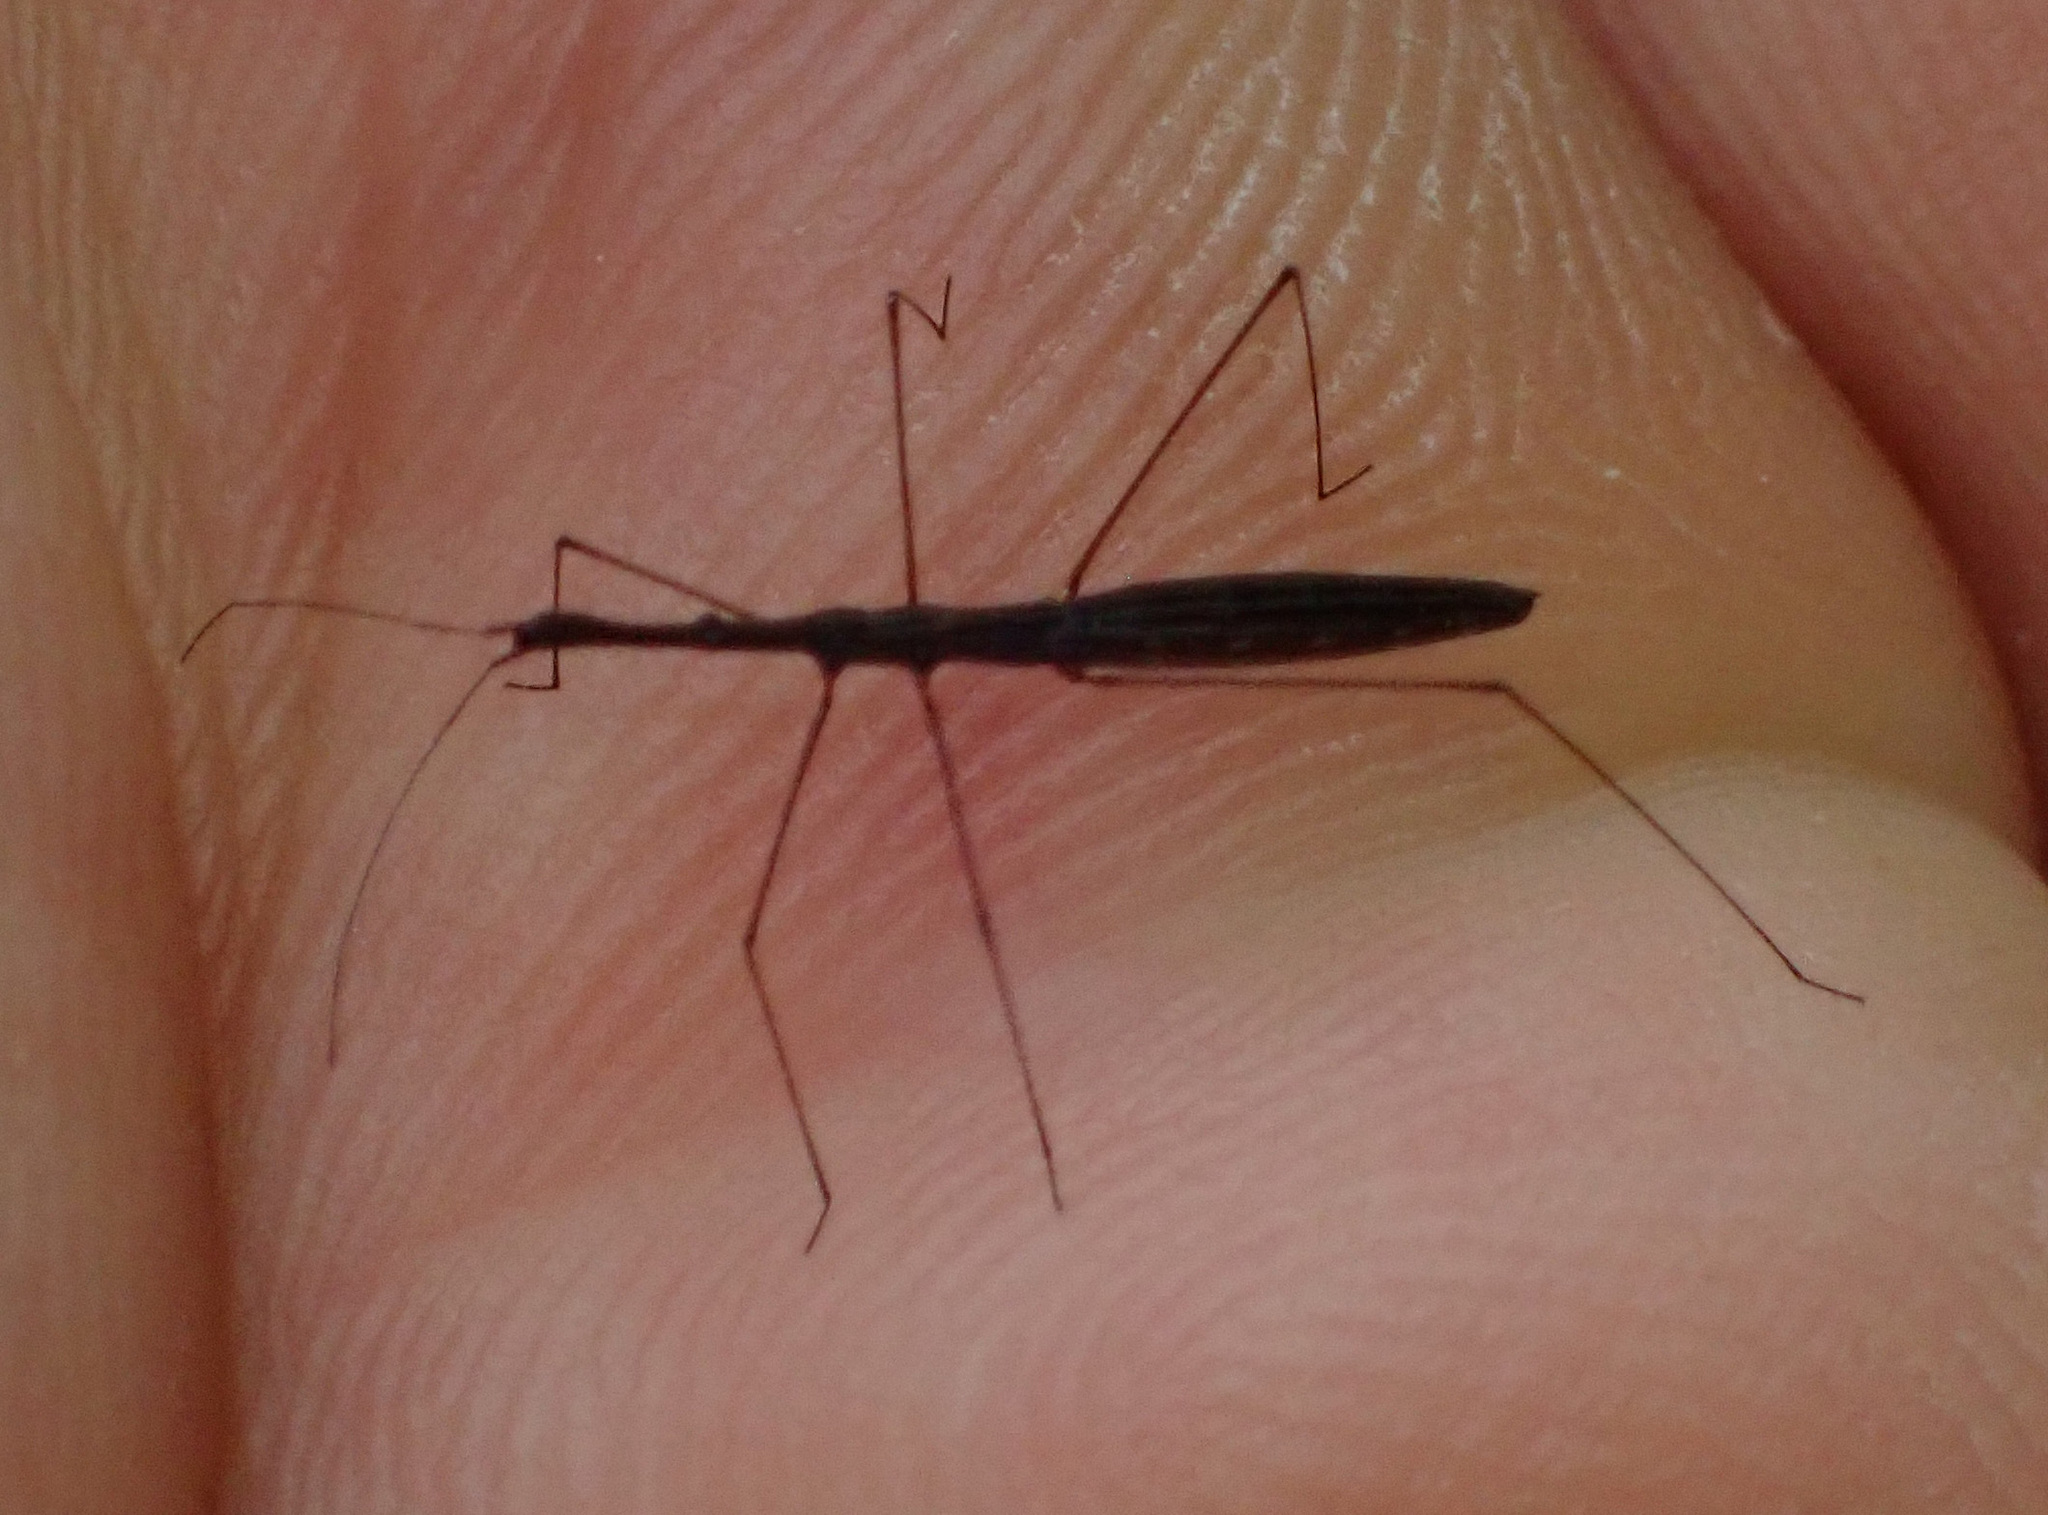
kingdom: Animalia
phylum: Arthropoda
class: Insecta
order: Hemiptera
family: Hydrometridae
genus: Hydrometra
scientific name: Hydrometra stagnorum
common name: Water measurer
